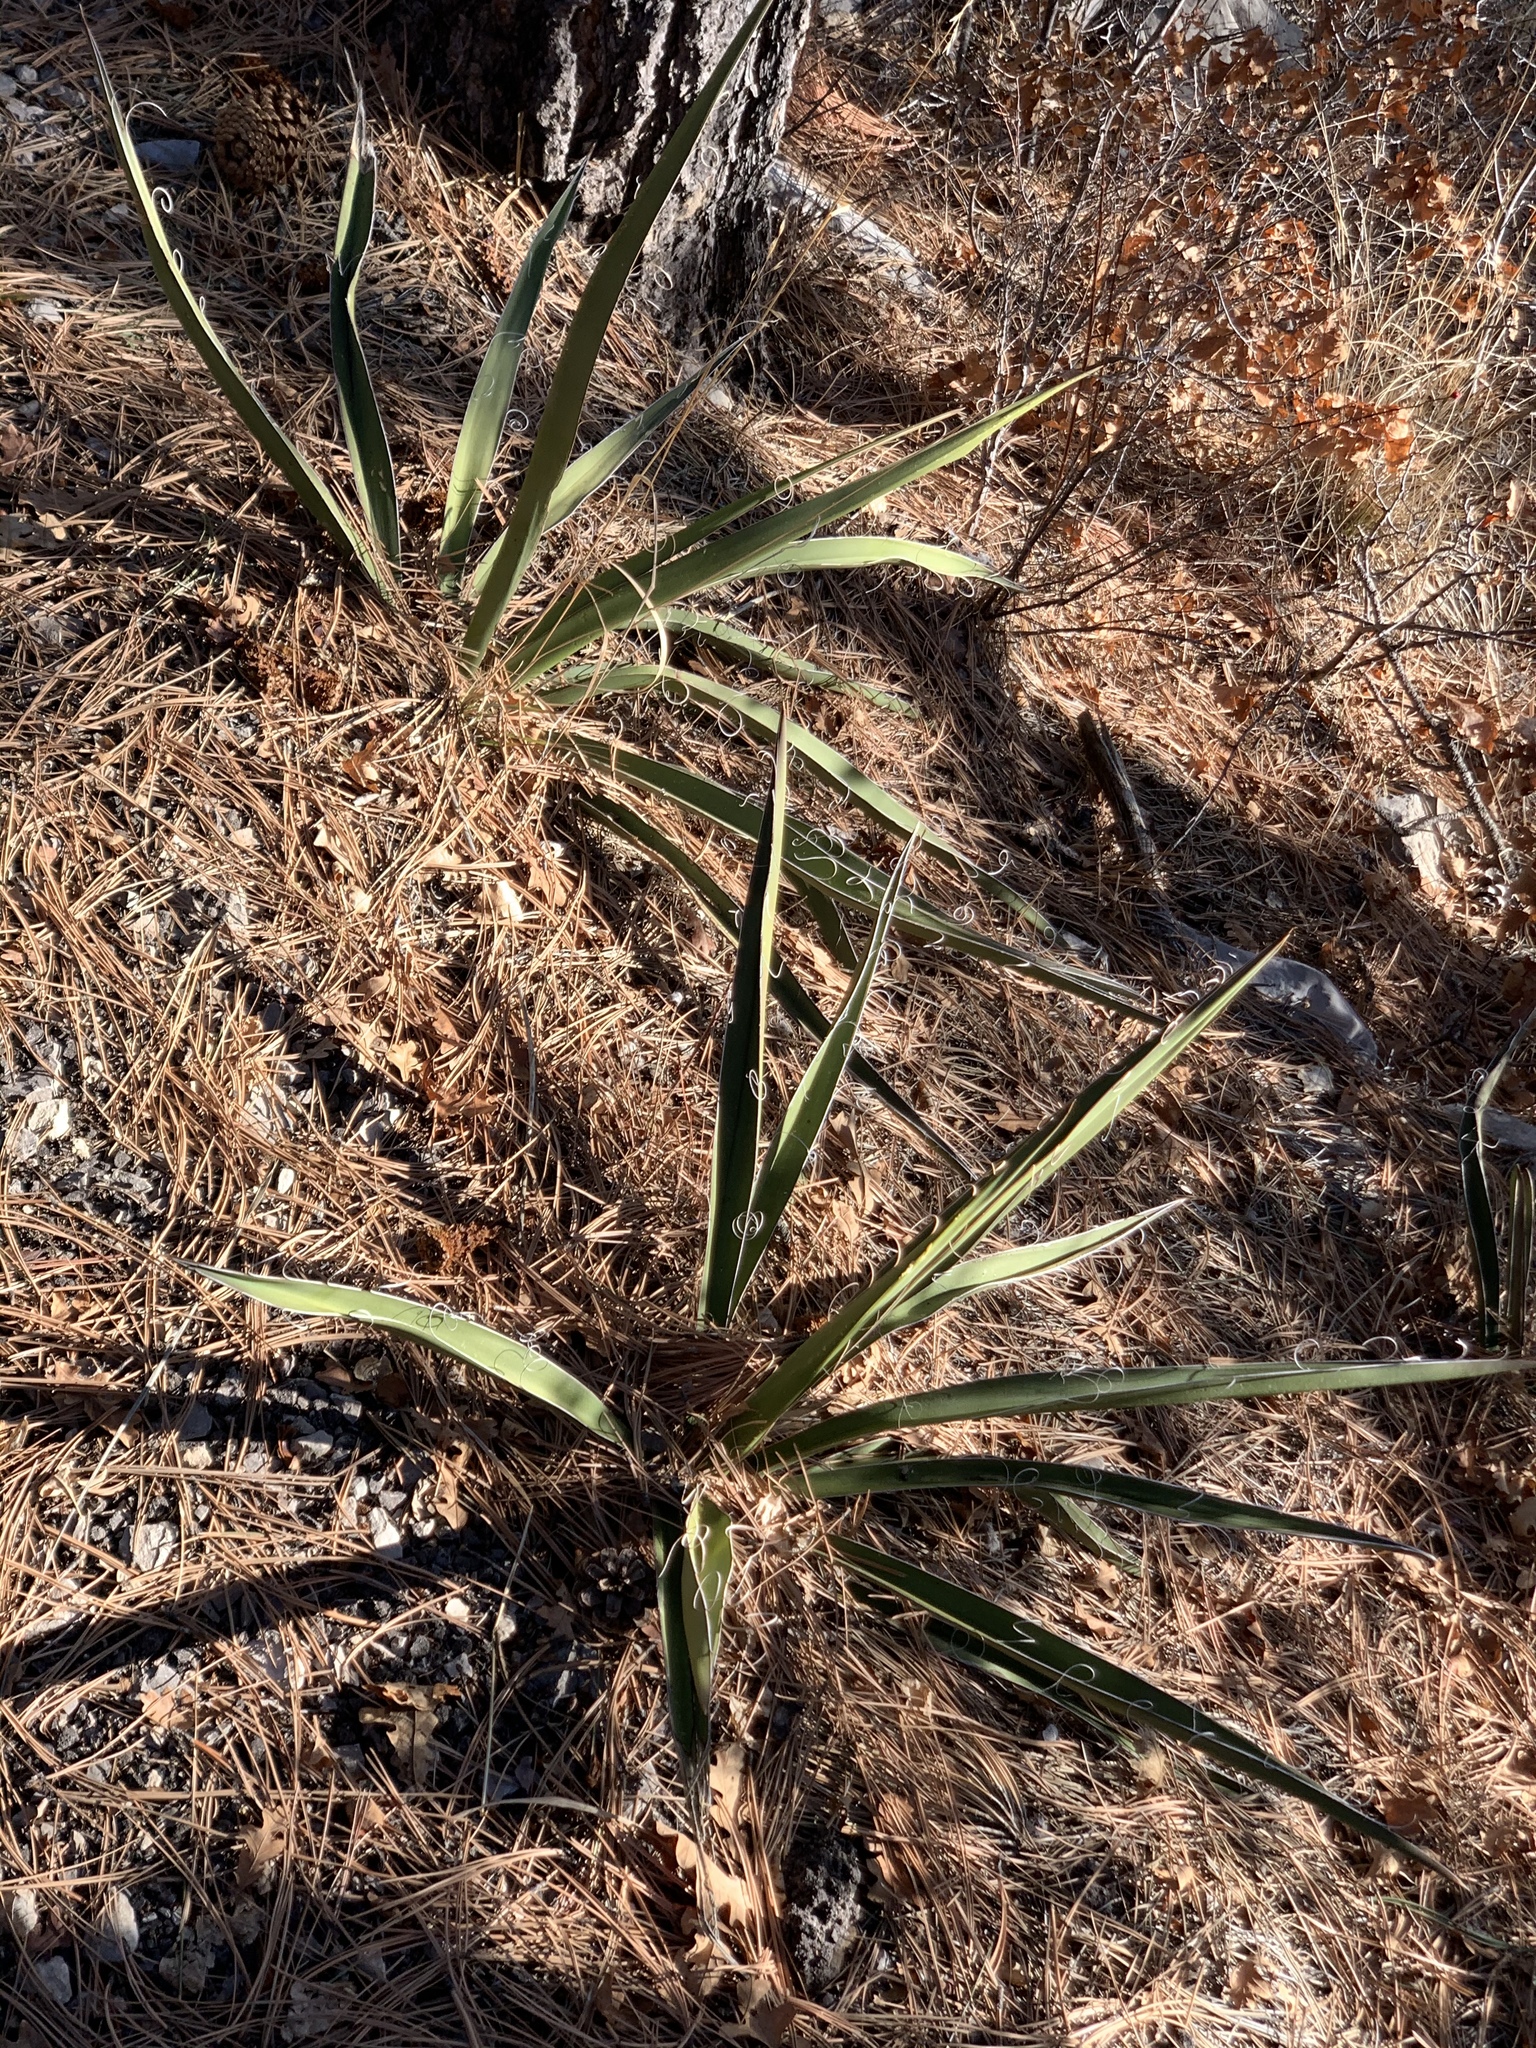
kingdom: Plantae
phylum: Tracheophyta
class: Liliopsida
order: Asparagales
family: Asparagaceae
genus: Yucca
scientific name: Yucca baccata
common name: Banana yucca
